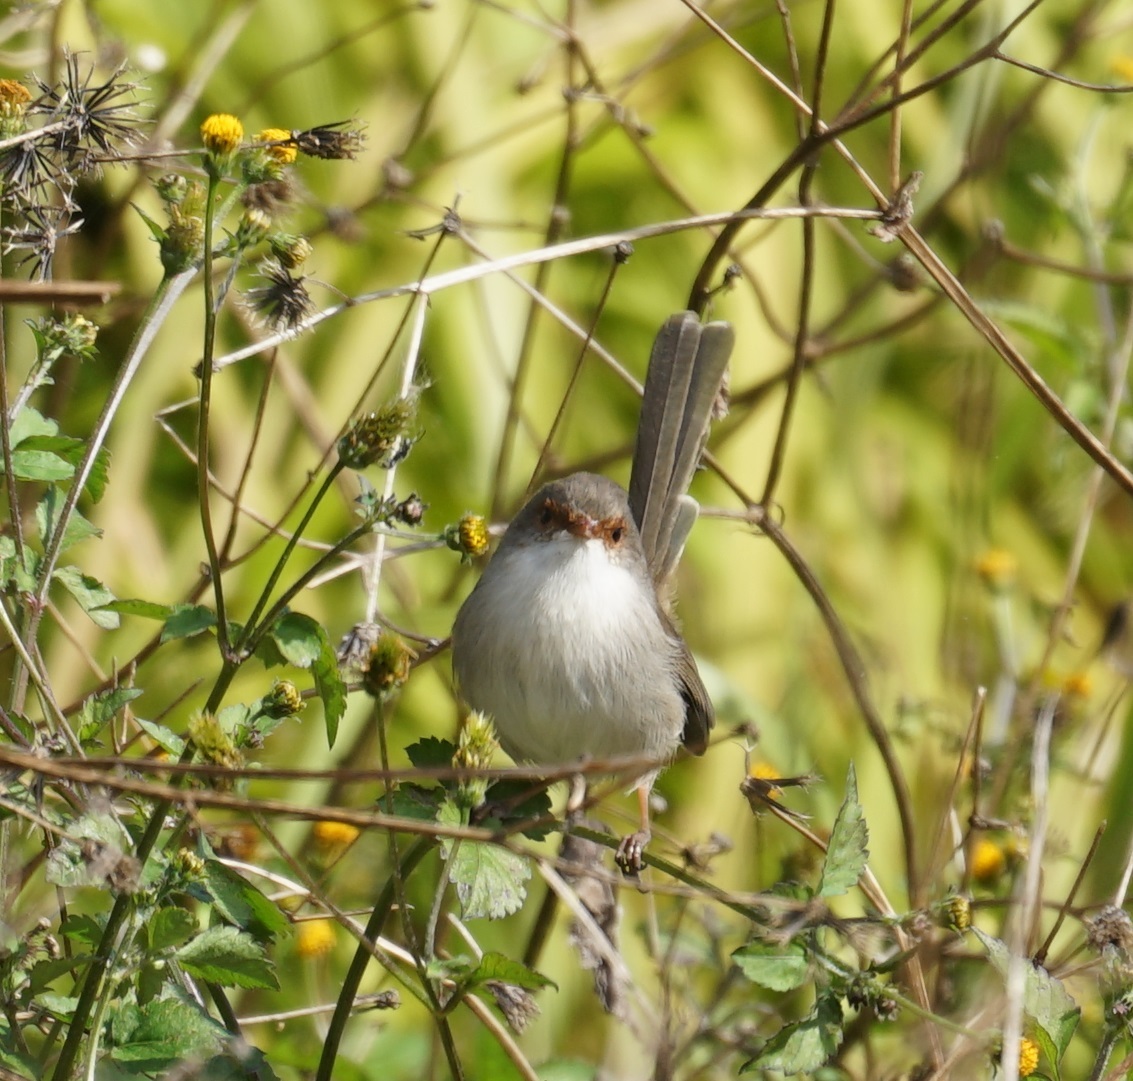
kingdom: Animalia
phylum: Chordata
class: Aves
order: Passeriformes
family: Maluridae
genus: Malurus
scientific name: Malurus cyaneus
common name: Superb fairywren
